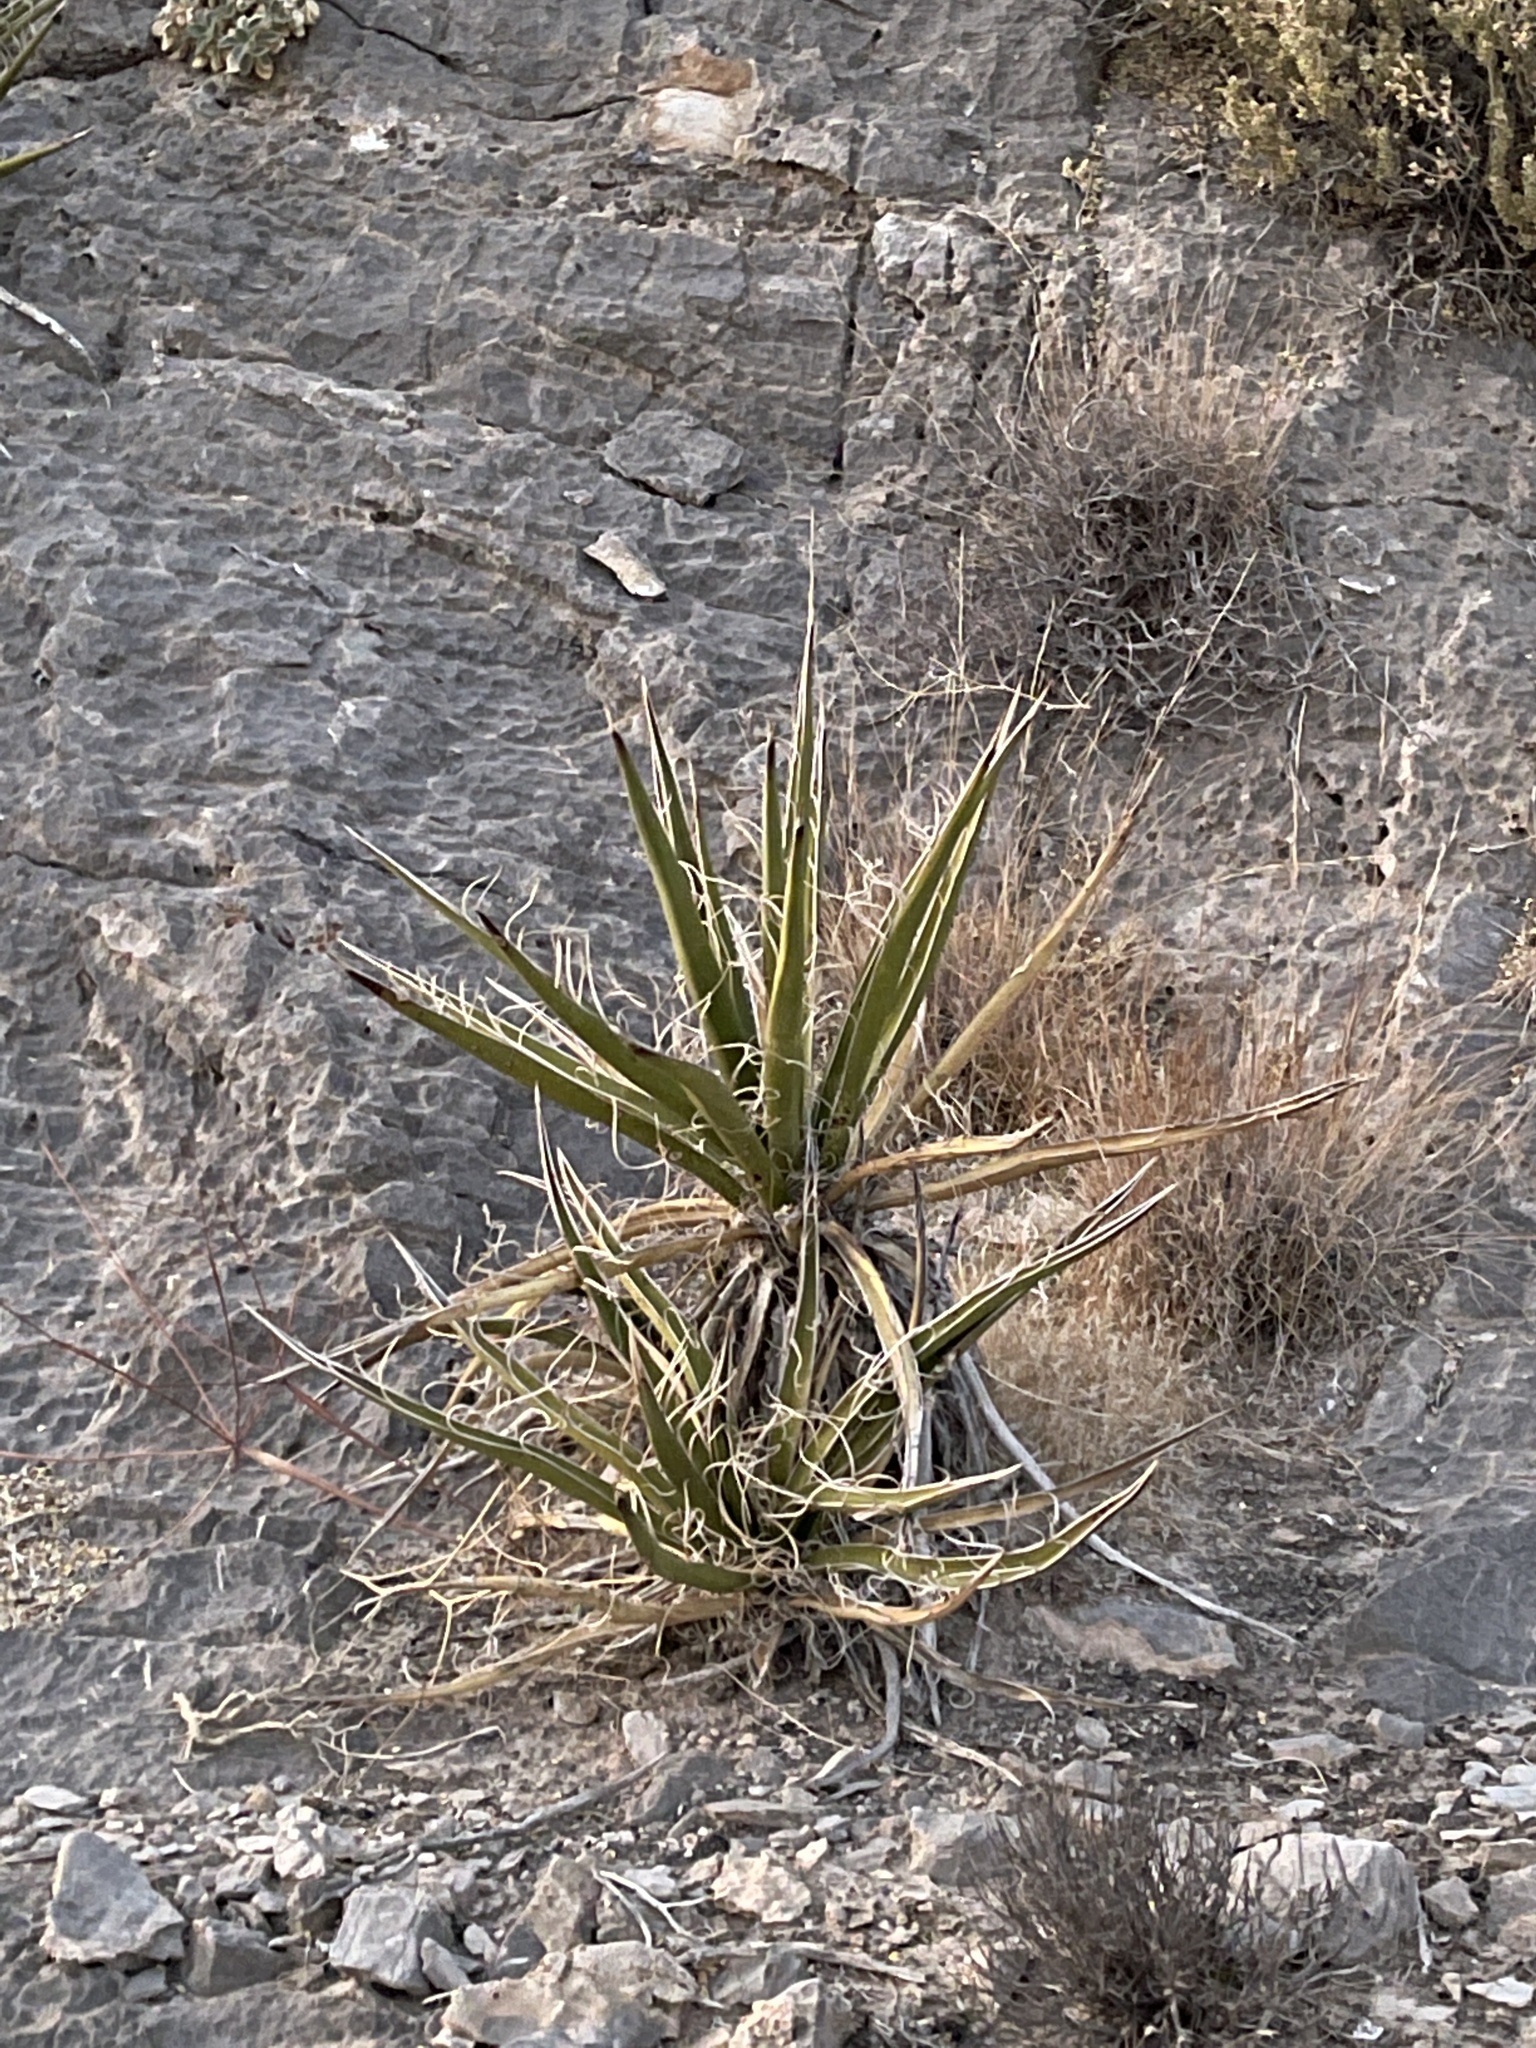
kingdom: Plantae
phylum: Tracheophyta
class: Liliopsida
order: Asparagales
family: Asparagaceae
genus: Yucca
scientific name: Yucca schidigera
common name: Mojave yucca
